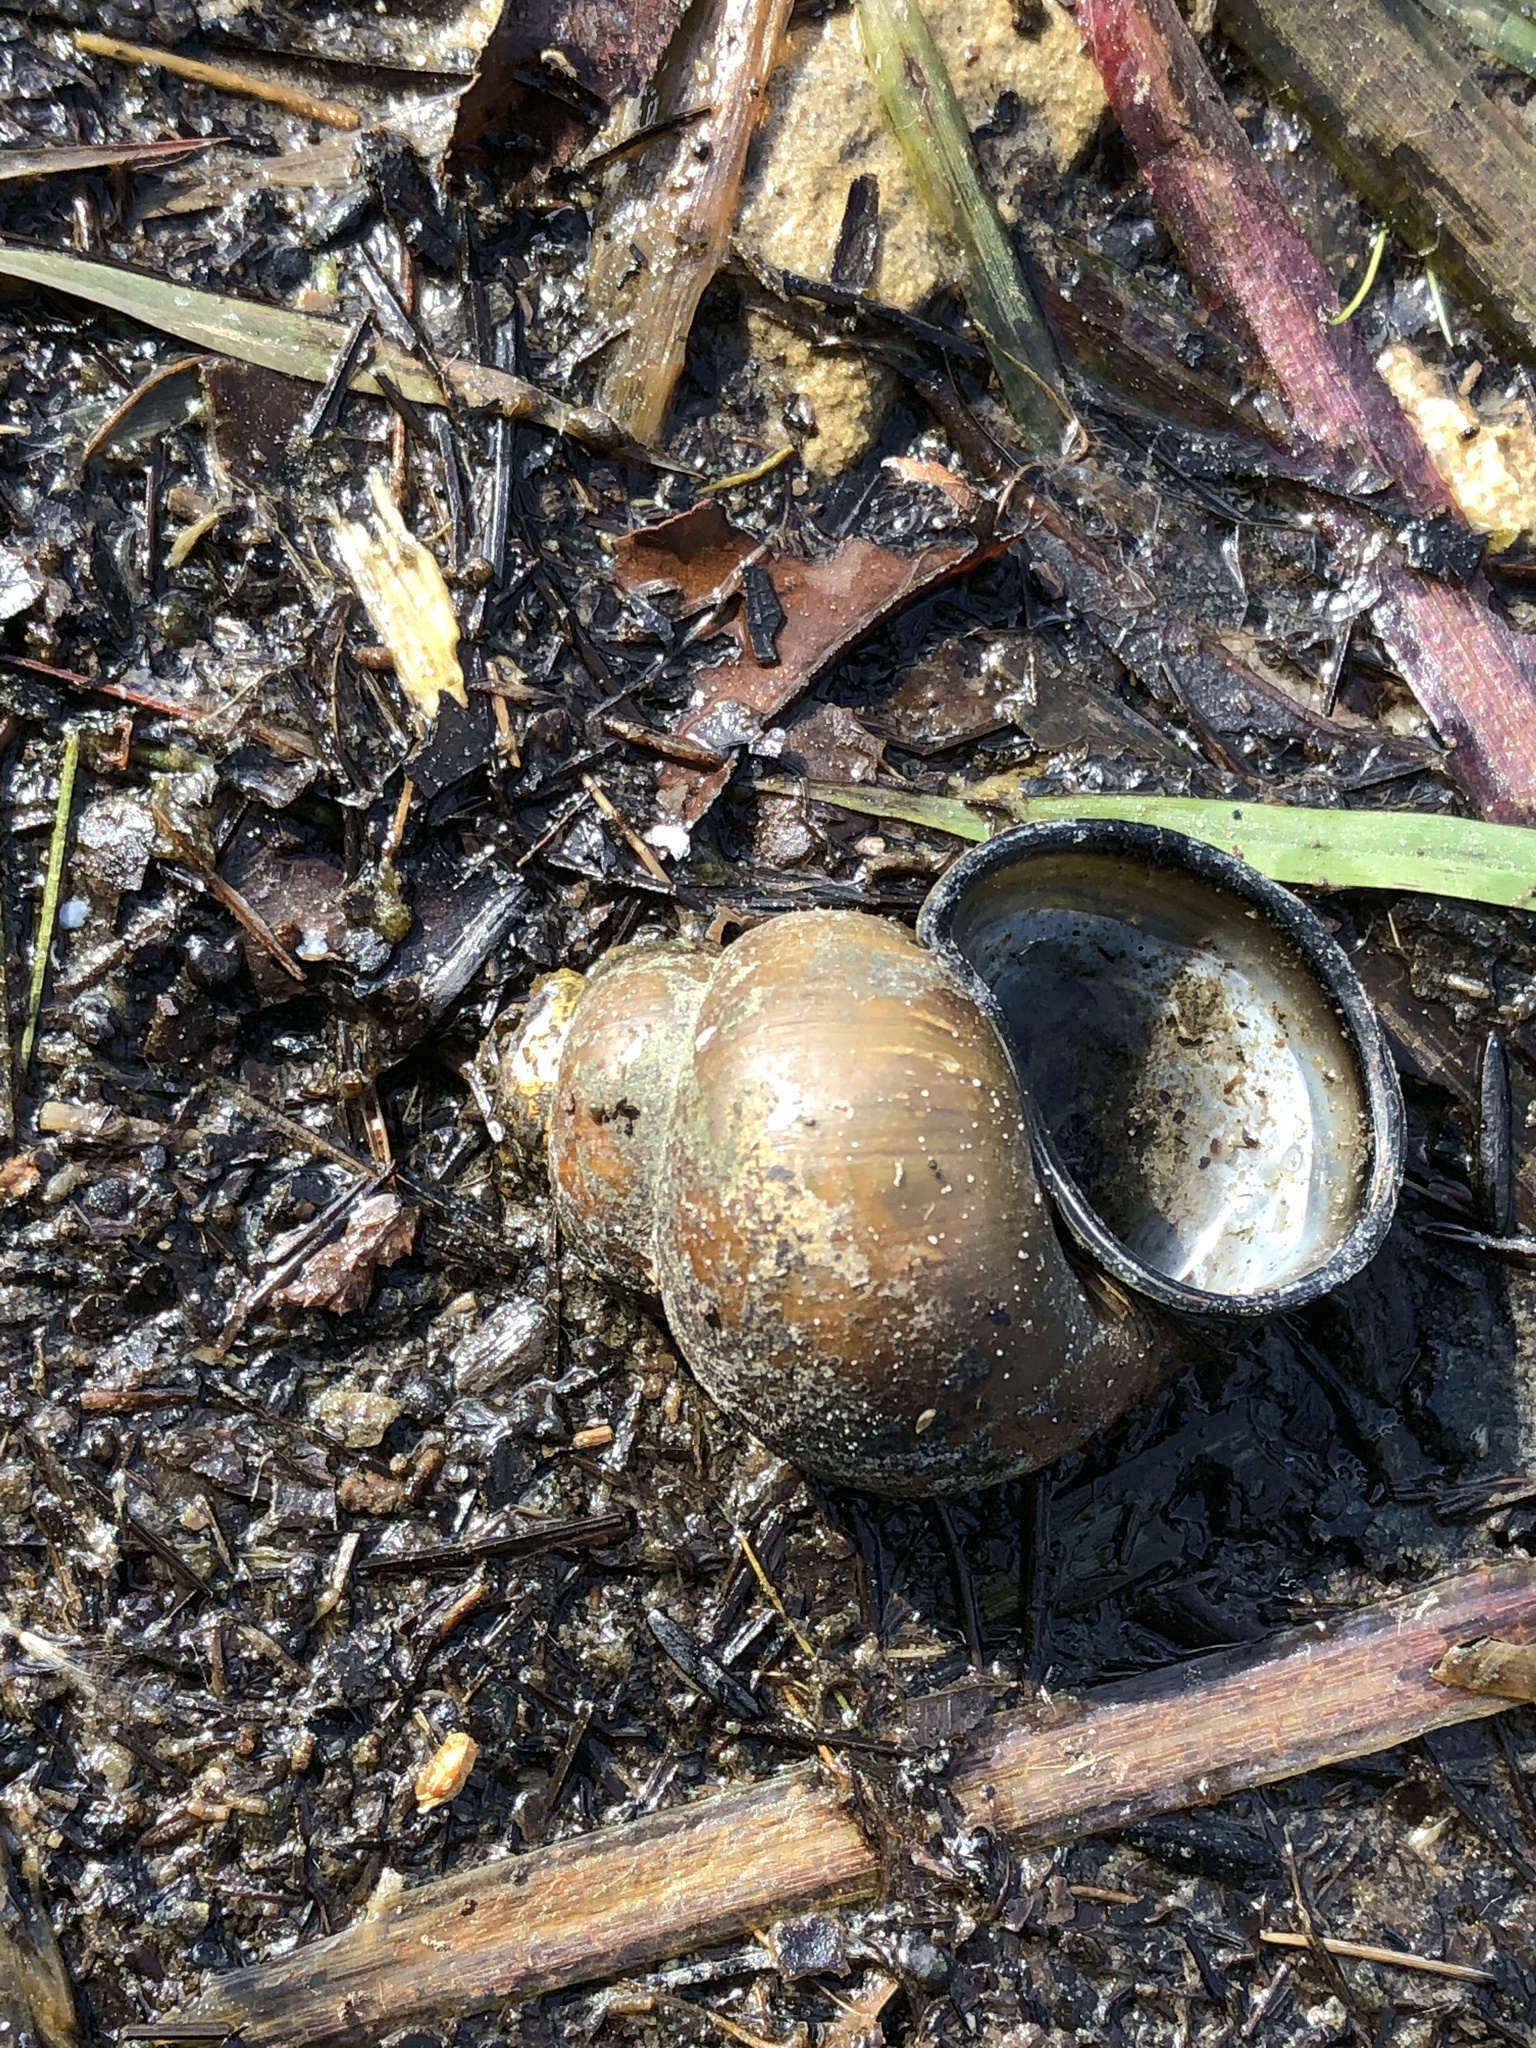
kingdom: Animalia
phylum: Mollusca
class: Gastropoda
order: Architaenioglossa
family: Viviparidae
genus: Cipangopaludina
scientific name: Cipangopaludina chinensis
